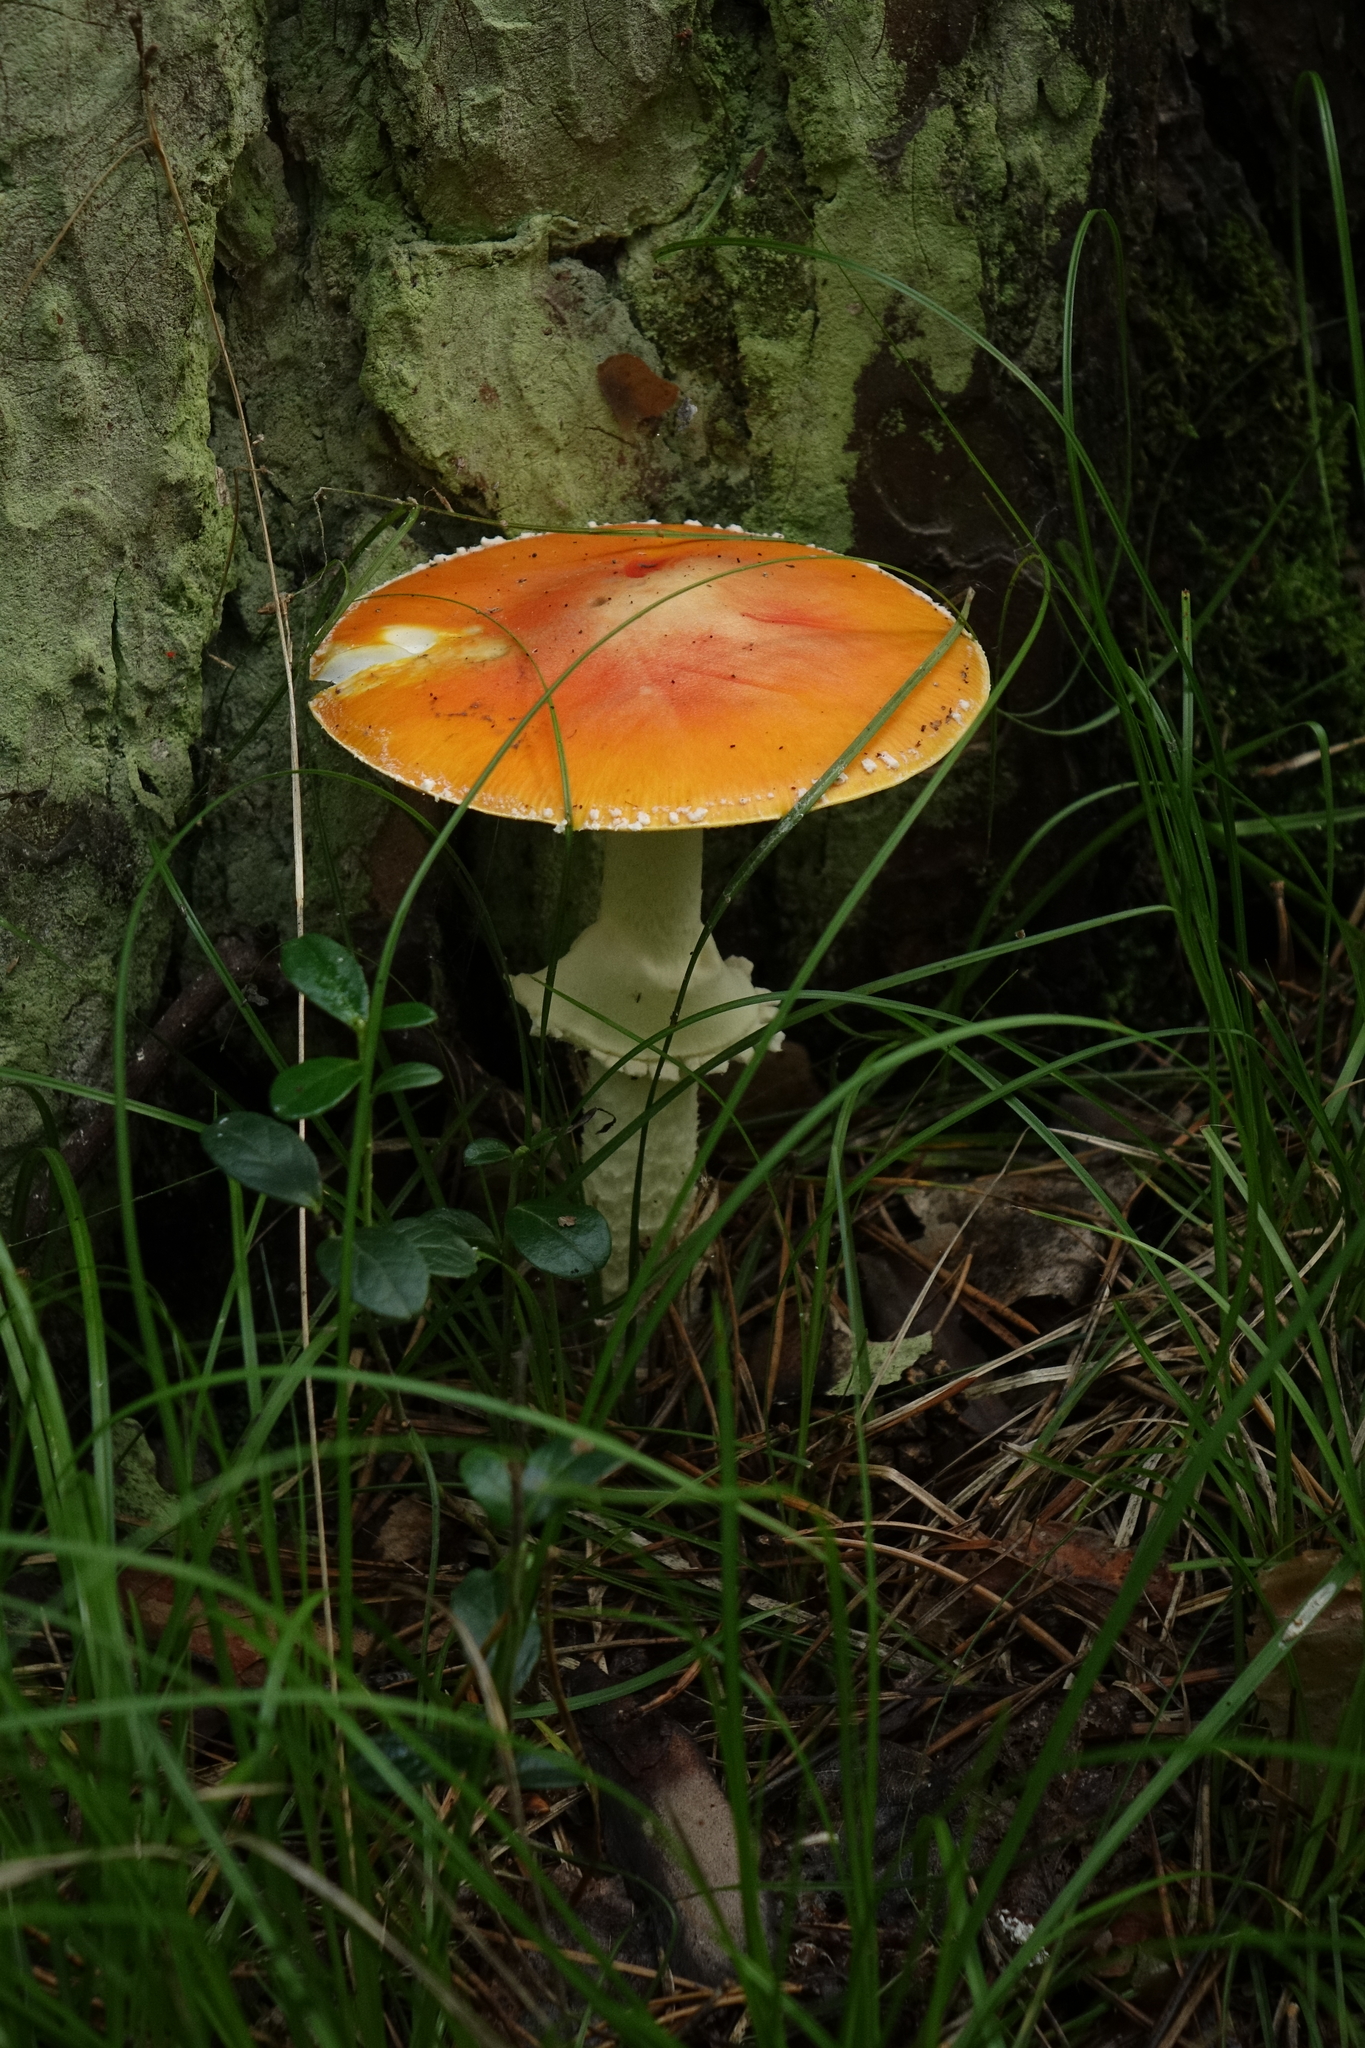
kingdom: Fungi
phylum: Basidiomycota
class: Agaricomycetes
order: Agaricales
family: Amanitaceae
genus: Amanita
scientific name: Amanita muscaria
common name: Fly agaric
